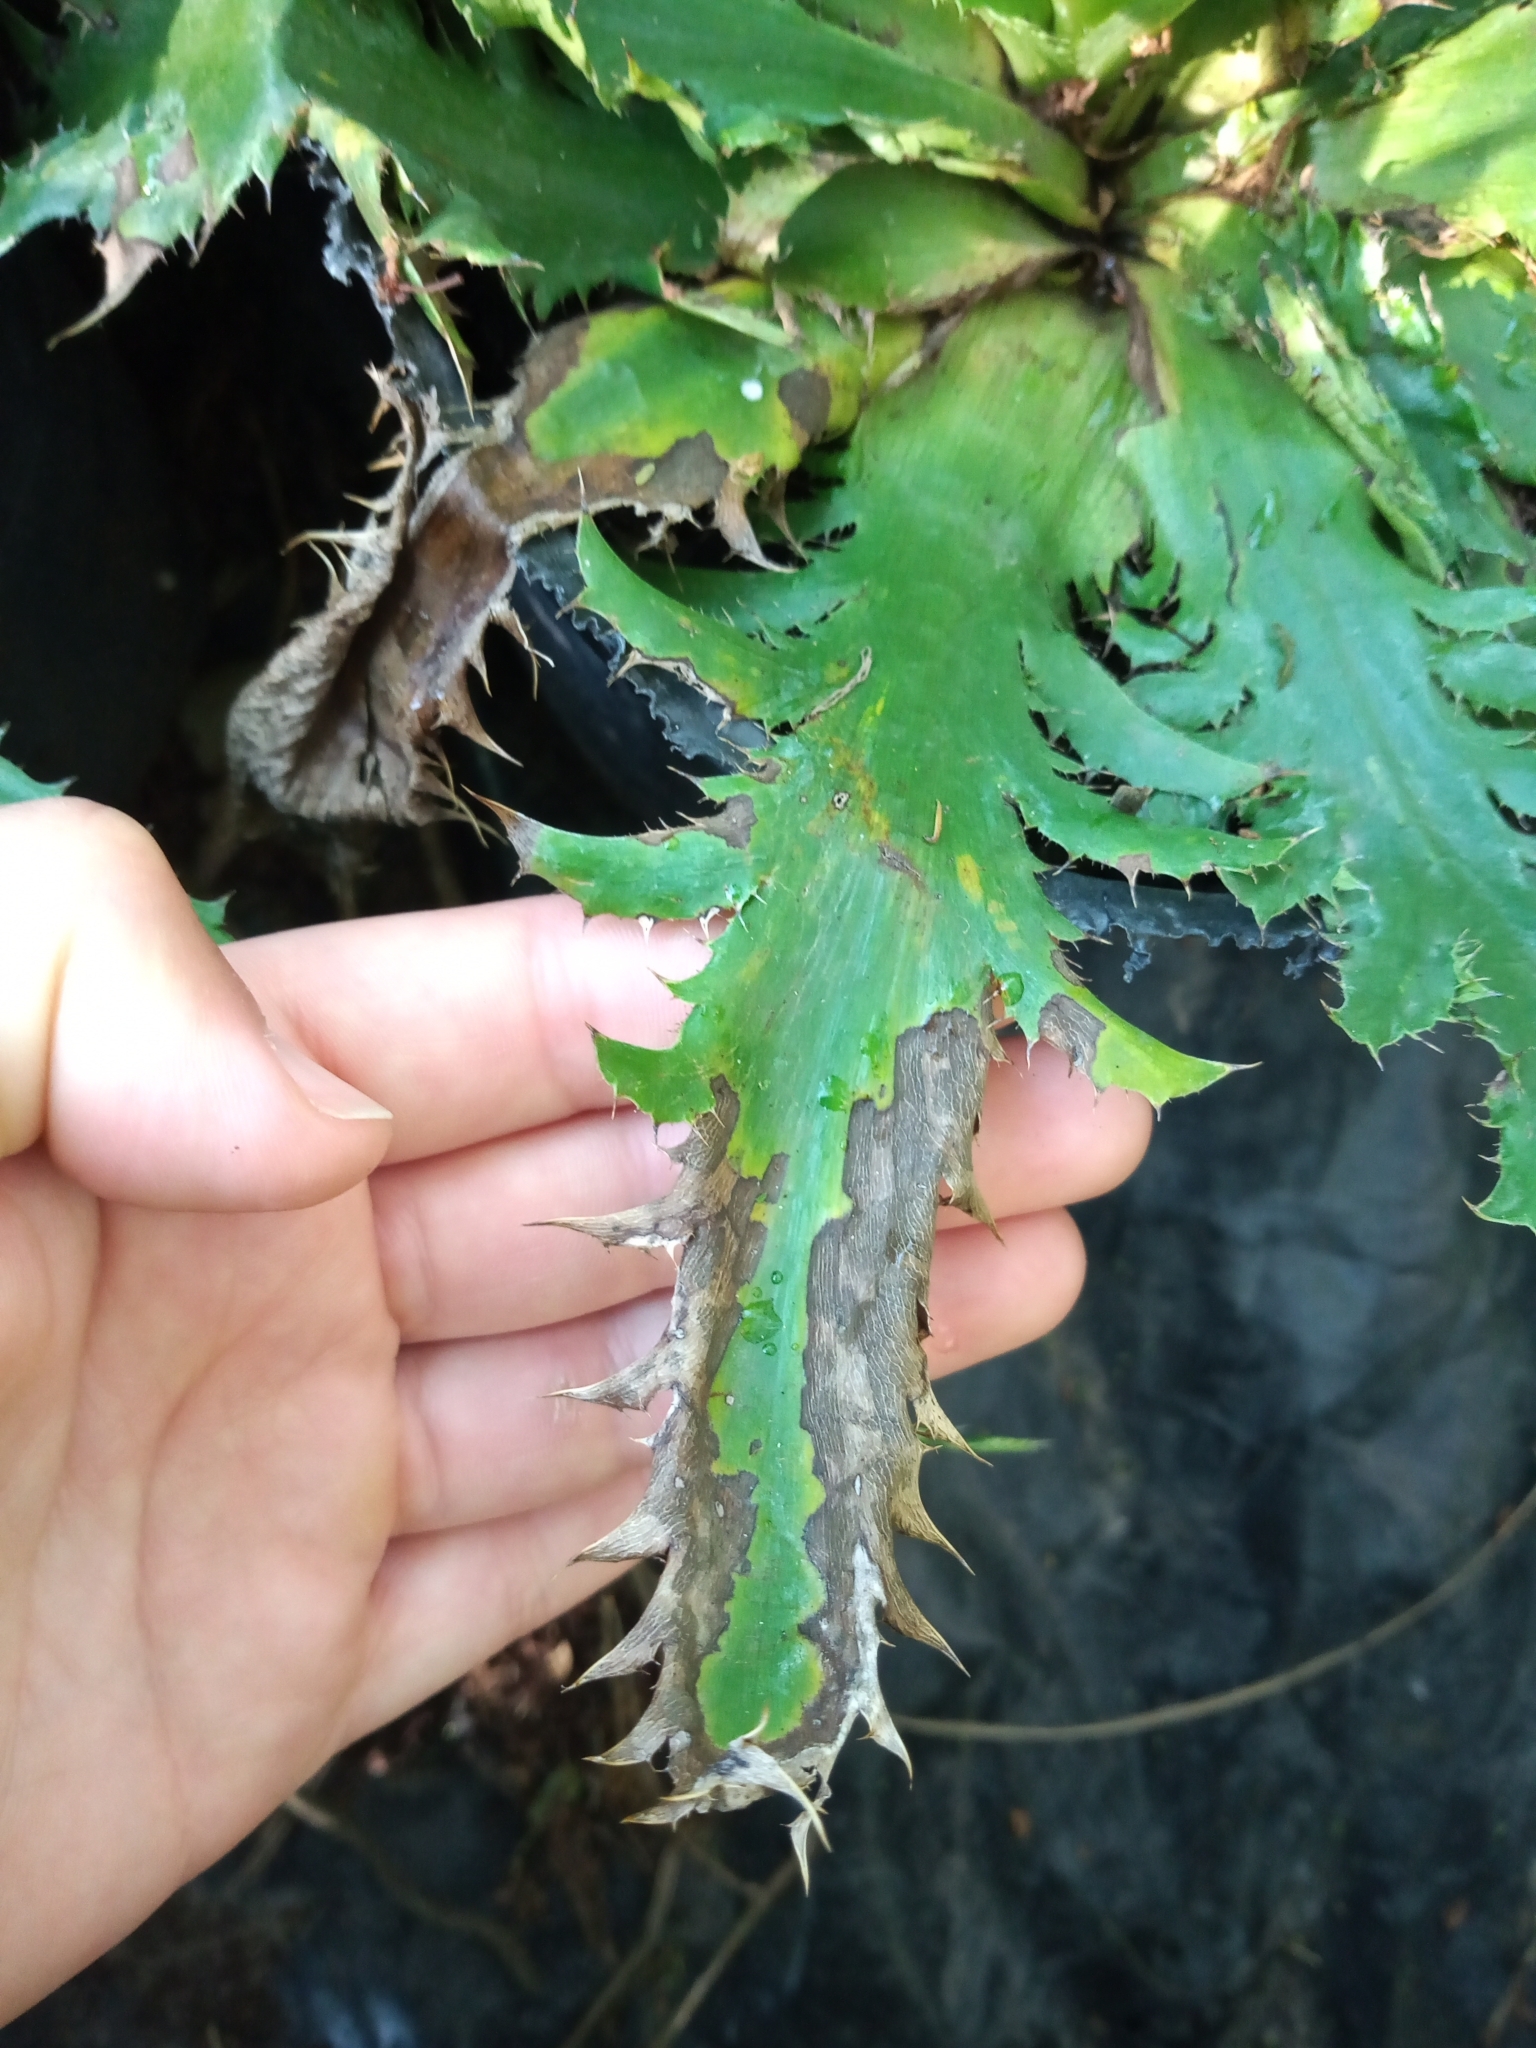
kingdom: Plantae
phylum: Tracheophyta
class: Magnoliopsida
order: Apiales
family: Apiaceae
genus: Eryngium
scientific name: Eryngium serra
